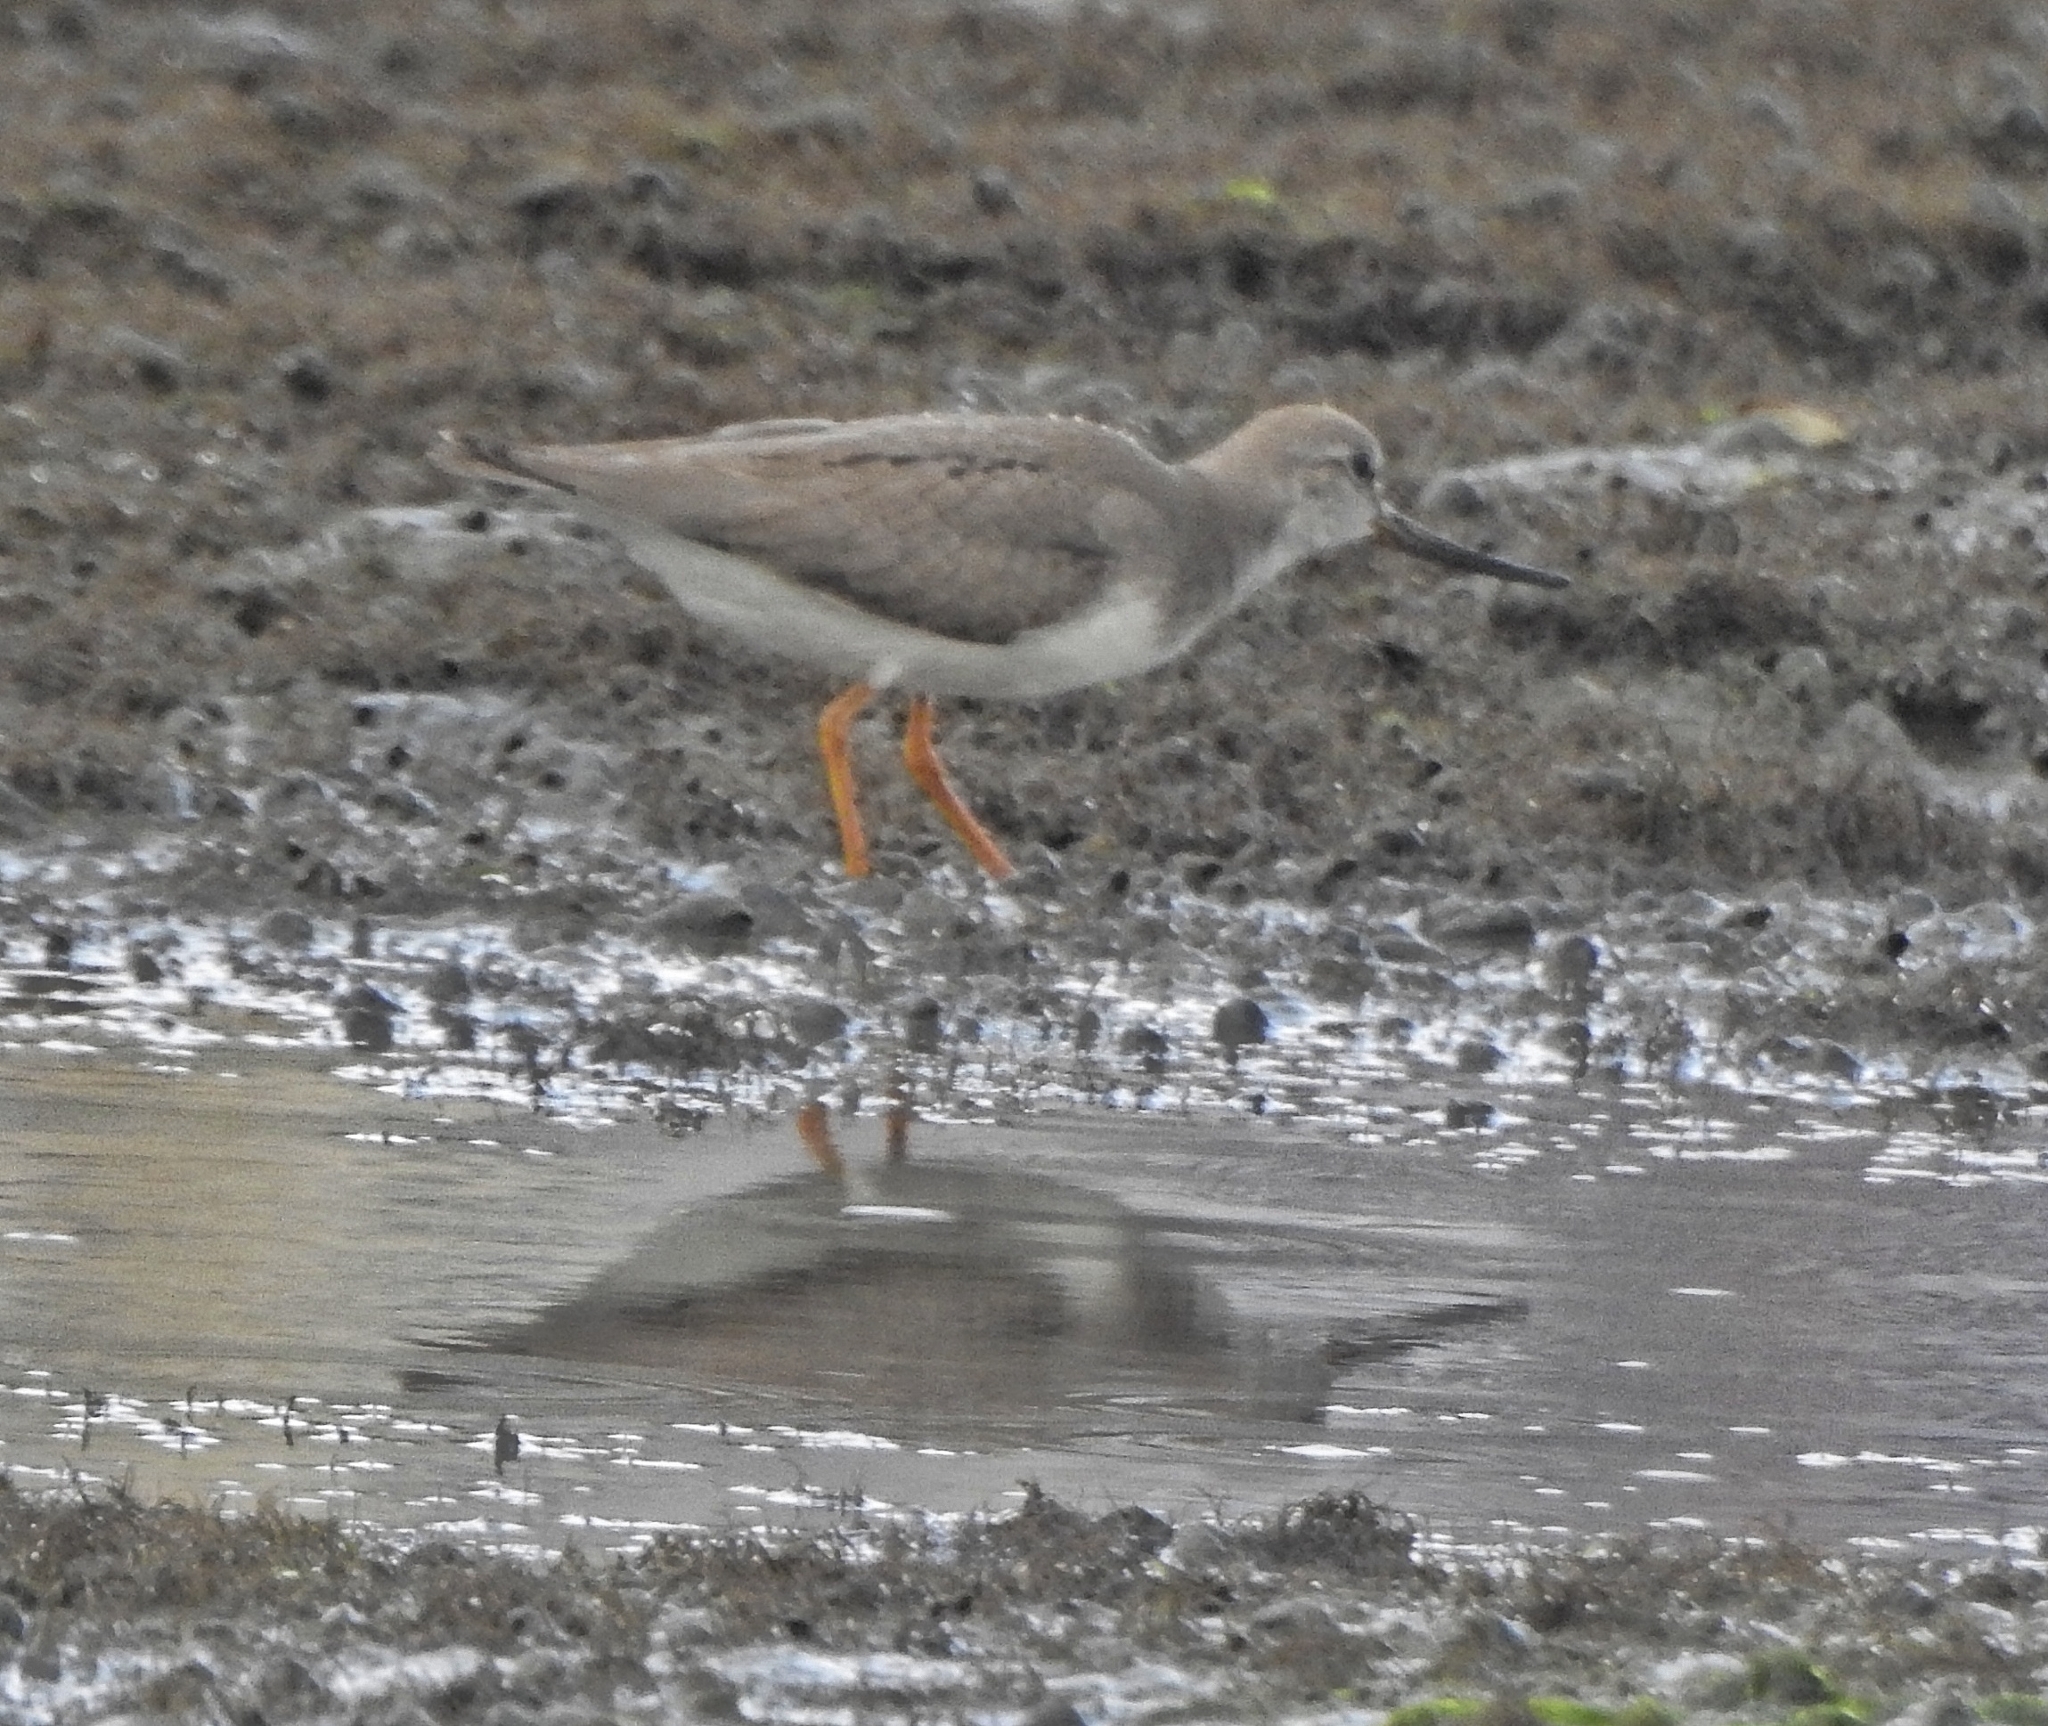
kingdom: Animalia
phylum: Chordata
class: Aves
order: Charadriiformes
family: Scolopacidae
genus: Xenus
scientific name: Xenus cinereus
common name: Terek sandpiper
